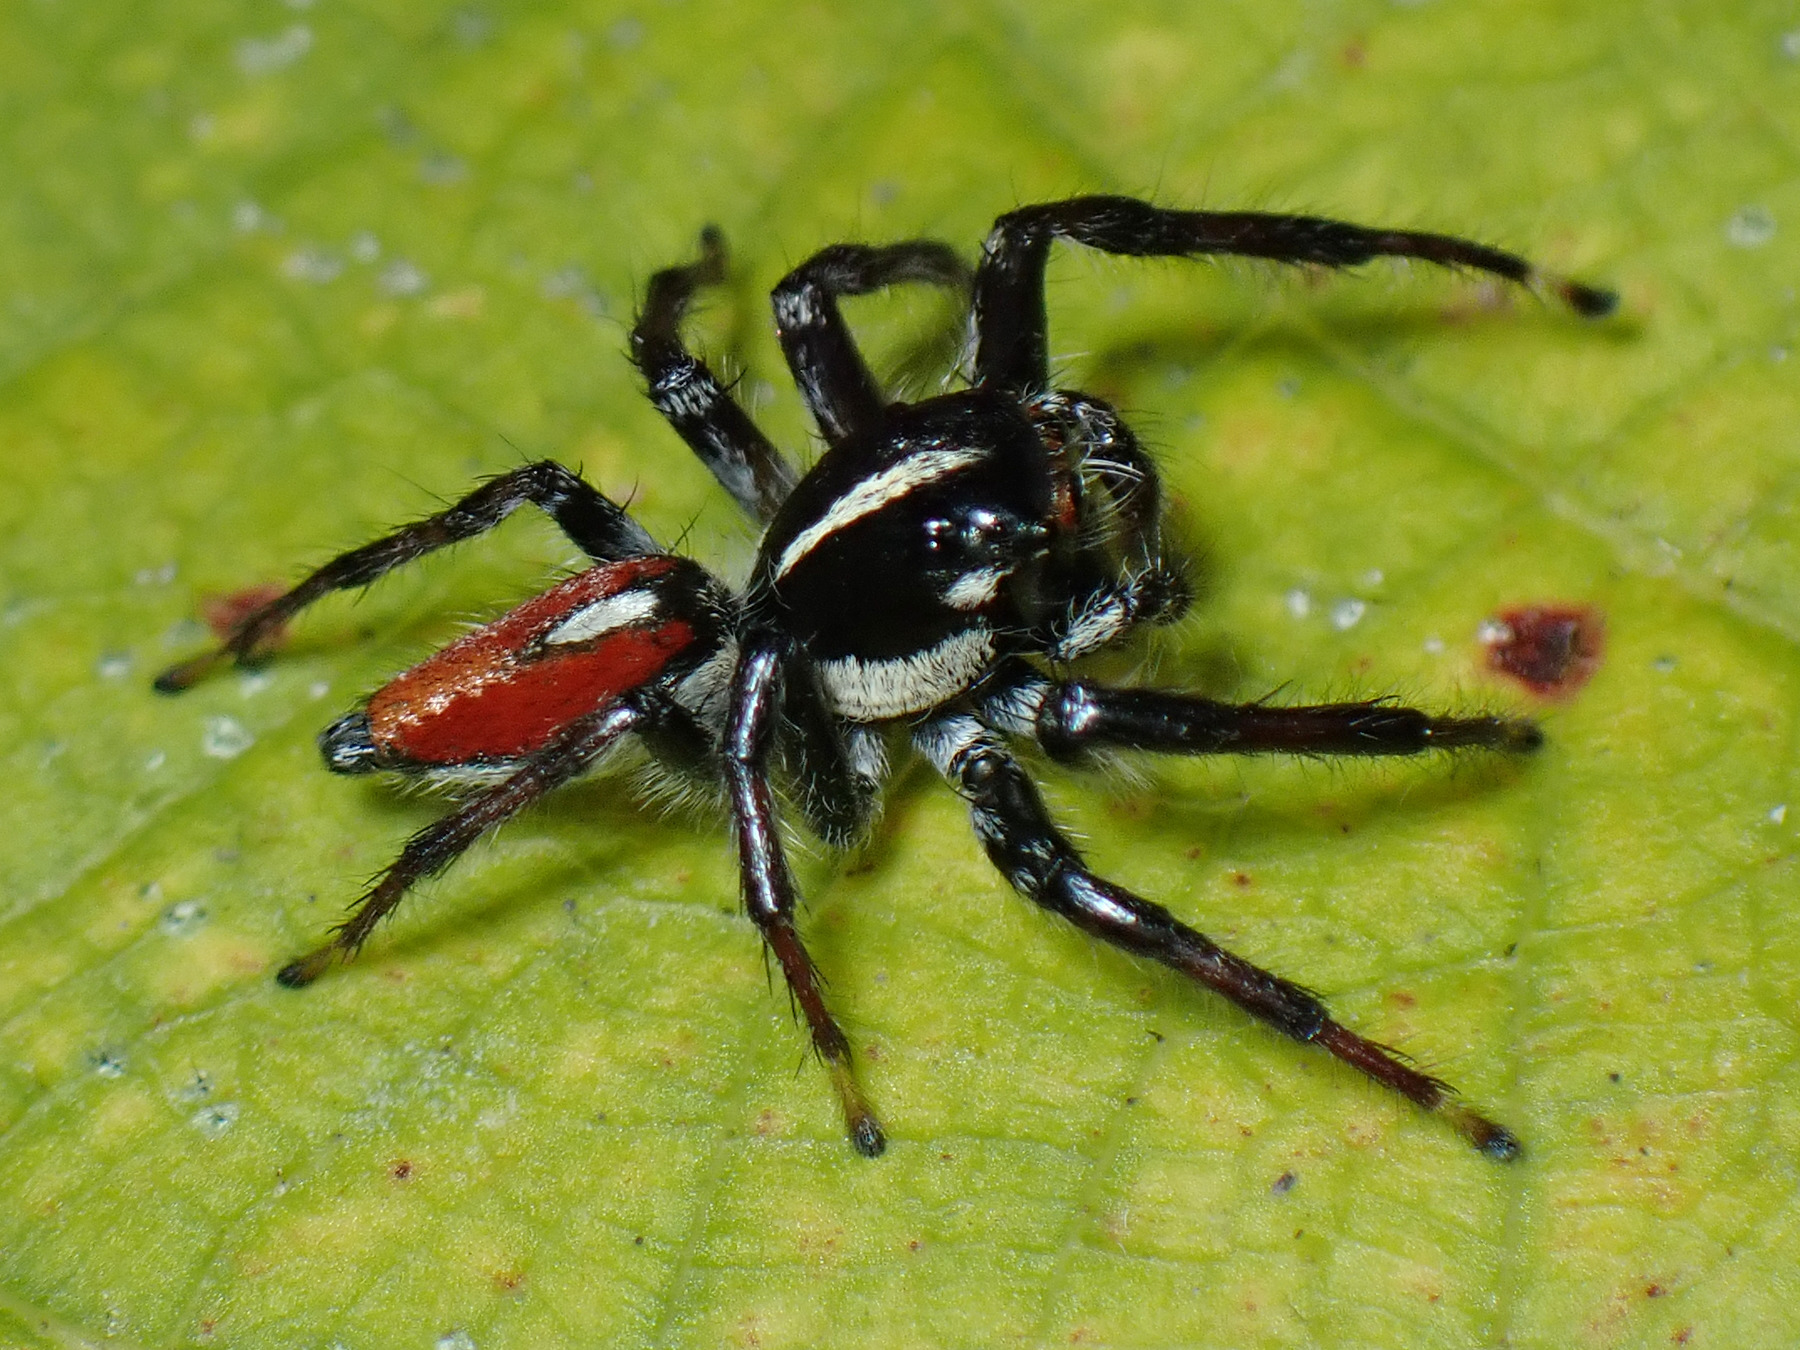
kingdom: Animalia
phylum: Arthropoda
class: Arachnida
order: Araneae
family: Salticidae
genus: Frigga
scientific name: Frigga pratensis
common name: Jumping spiders
